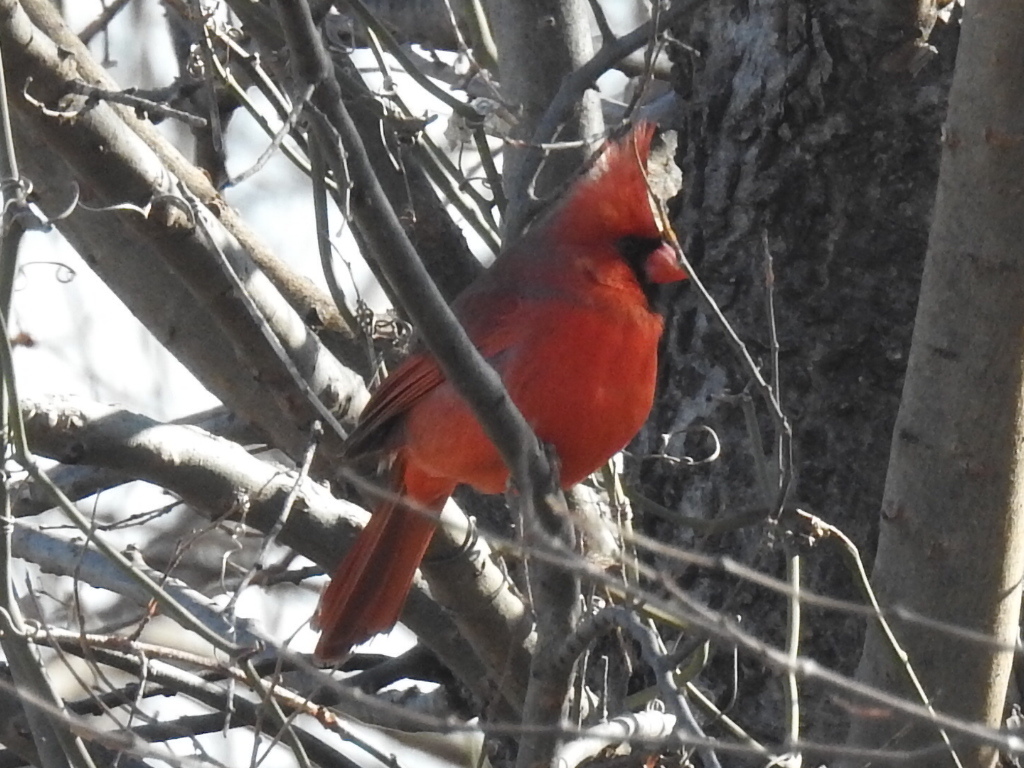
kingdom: Animalia
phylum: Chordata
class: Aves
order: Passeriformes
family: Cardinalidae
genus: Cardinalis
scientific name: Cardinalis cardinalis
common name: Northern cardinal
